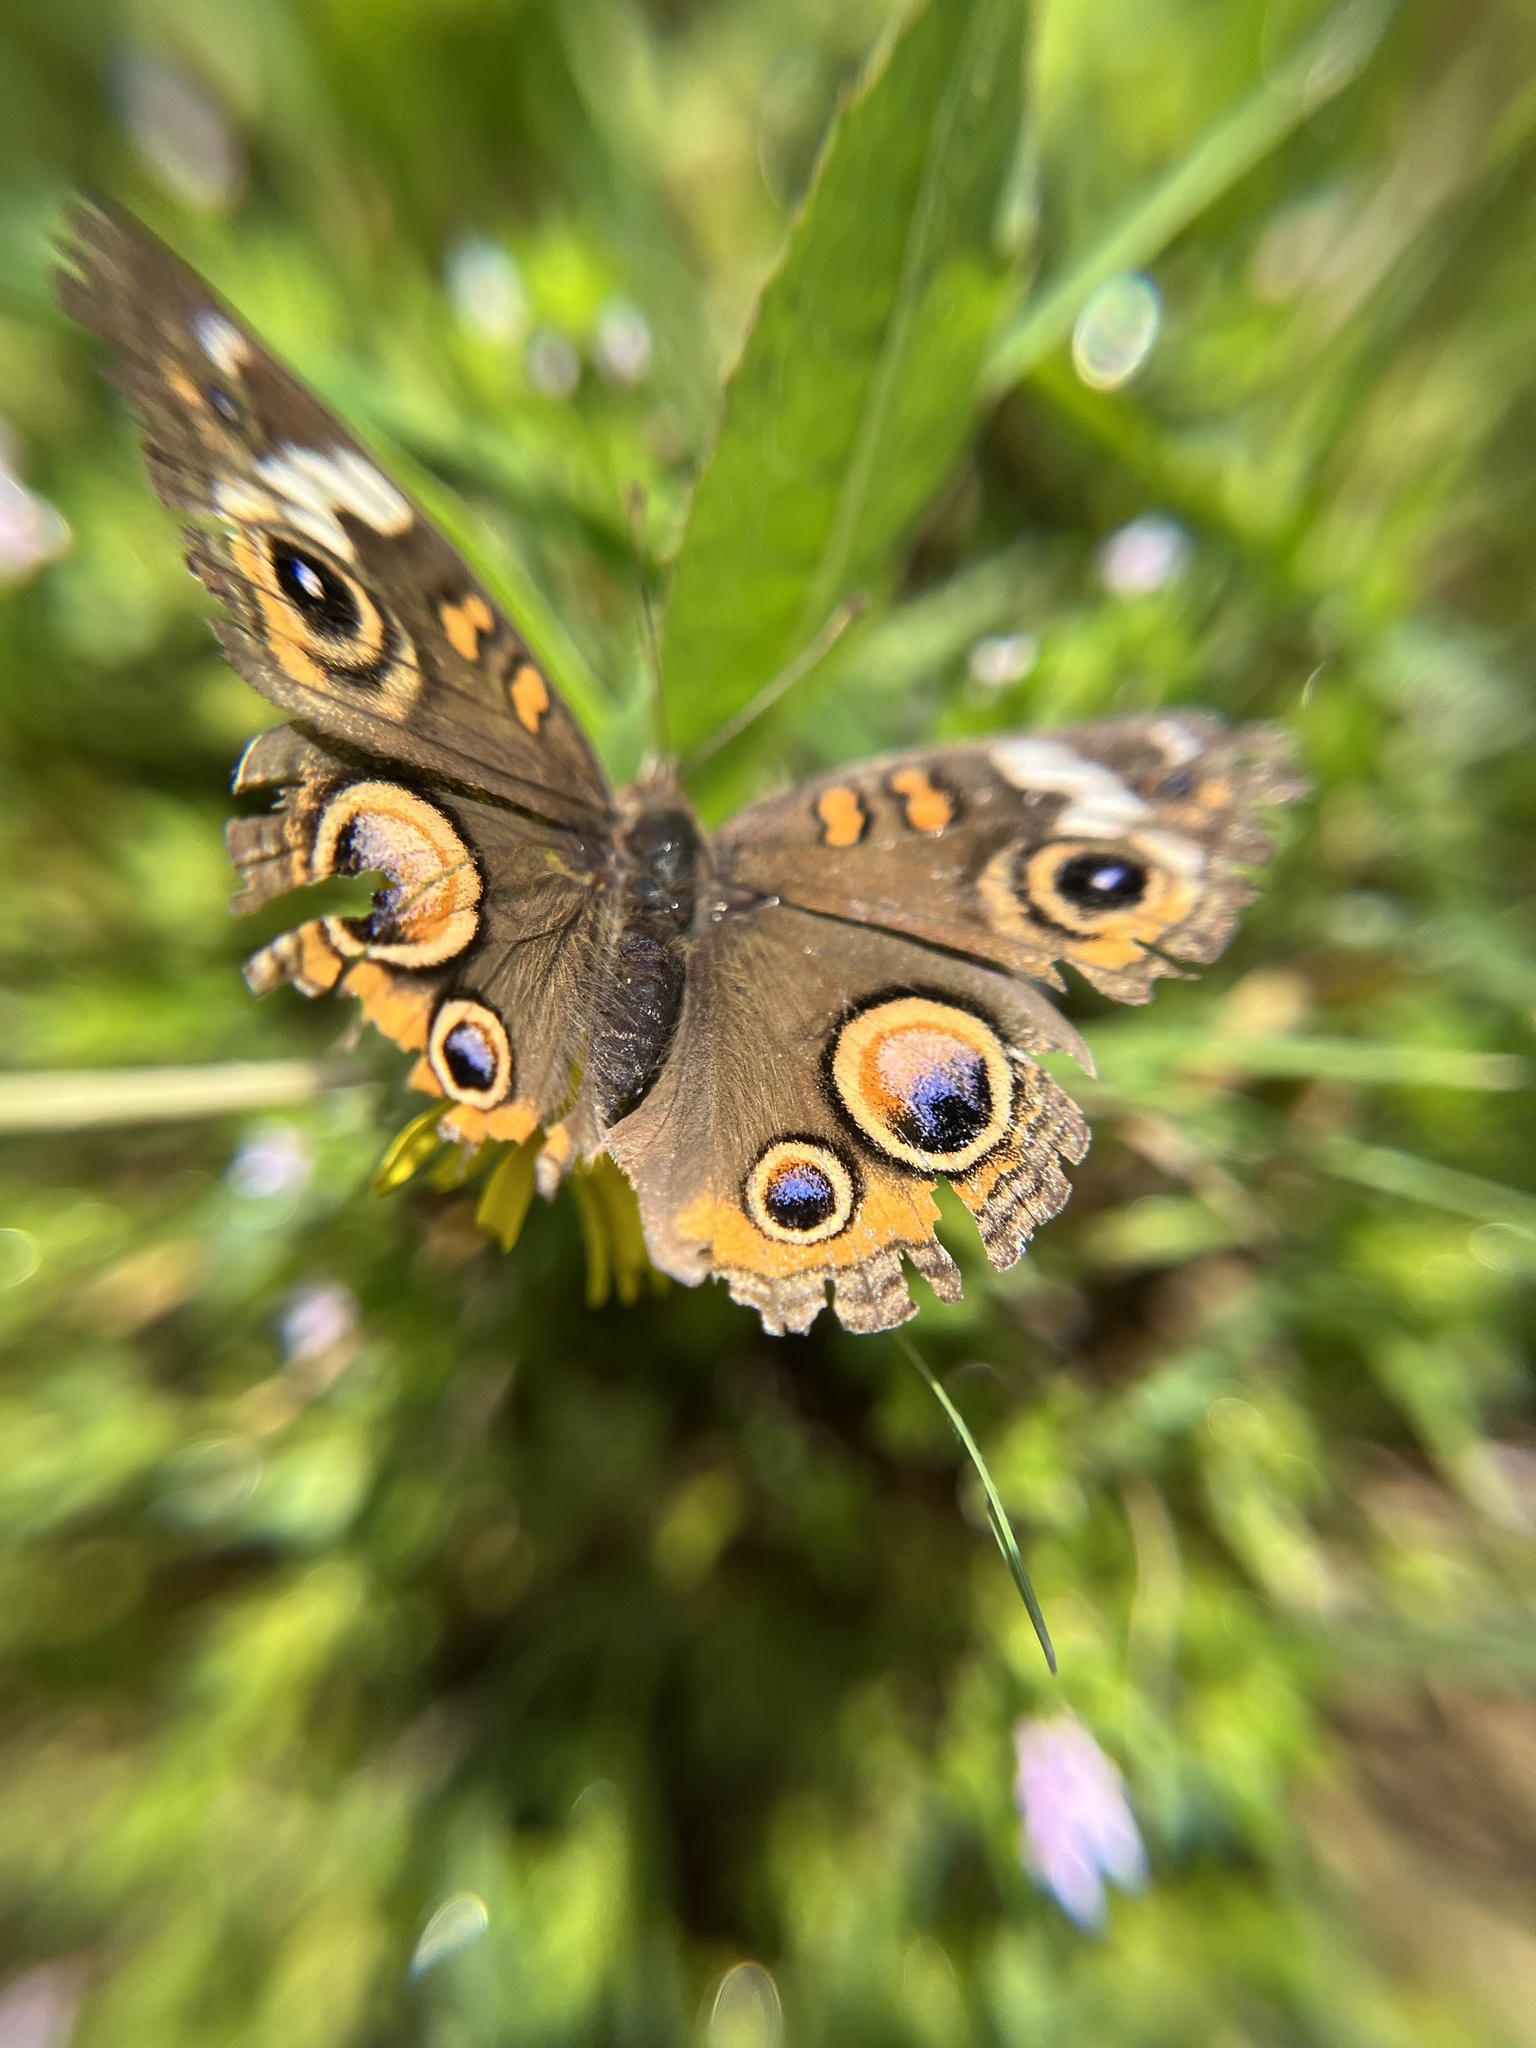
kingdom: Animalia
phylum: Arthropoda
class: Insecta
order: Lepidoptera
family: Nymphalidae
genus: Junonia
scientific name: Junonia coenia
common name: Common buckeye
